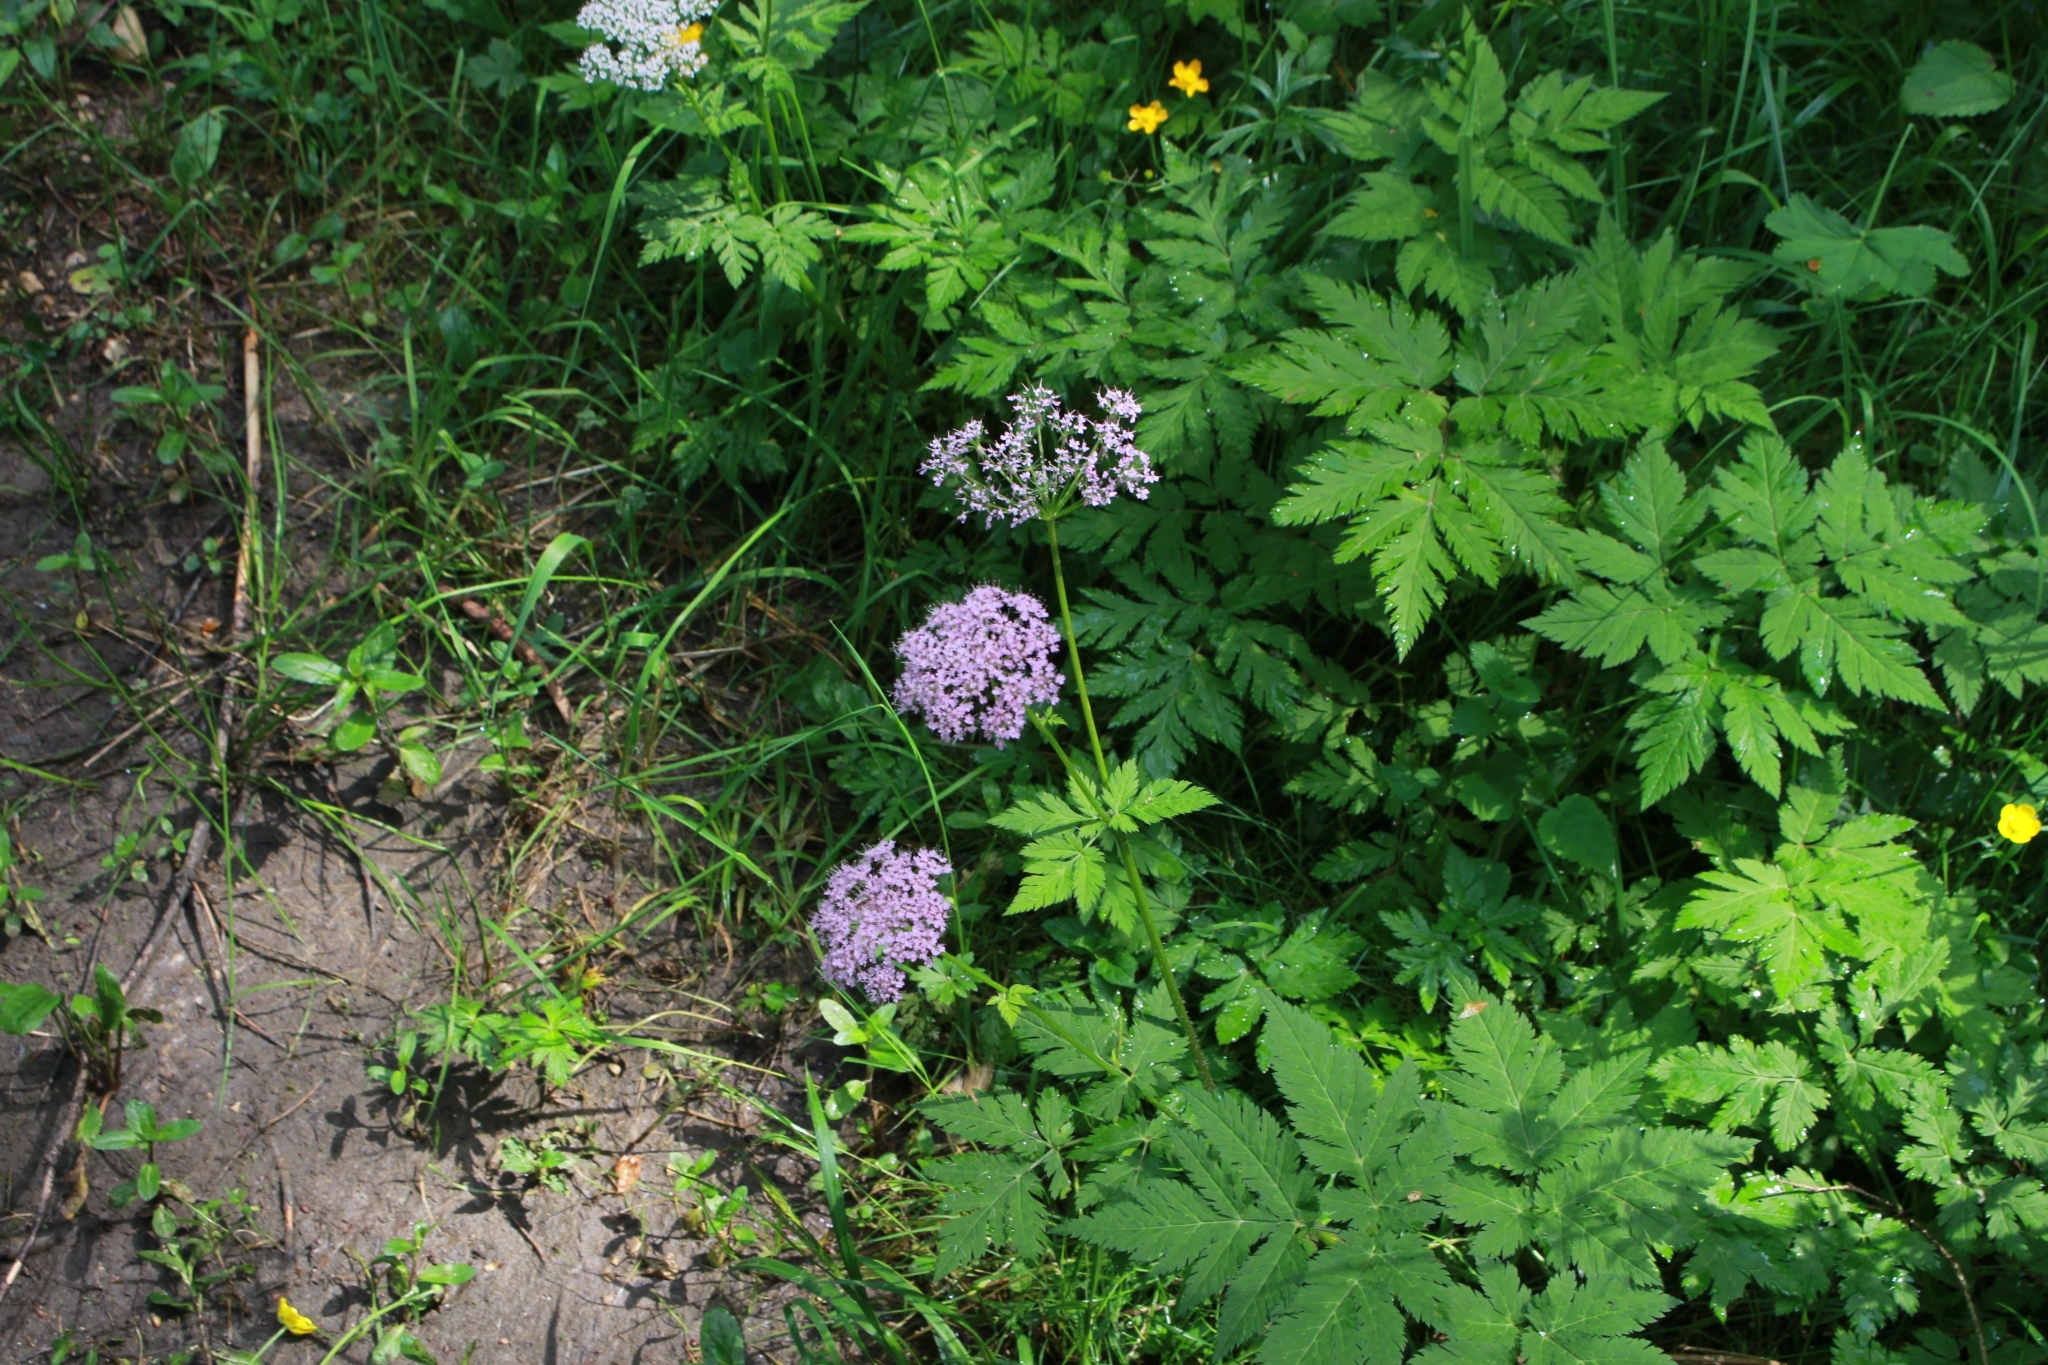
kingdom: Plantae
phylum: Tracheophyta
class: Magnoliopsida
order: Apiales
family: Apiaceae
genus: Chaerophyllum
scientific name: Chaerophyllum hirsutum
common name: Hairy chervil
